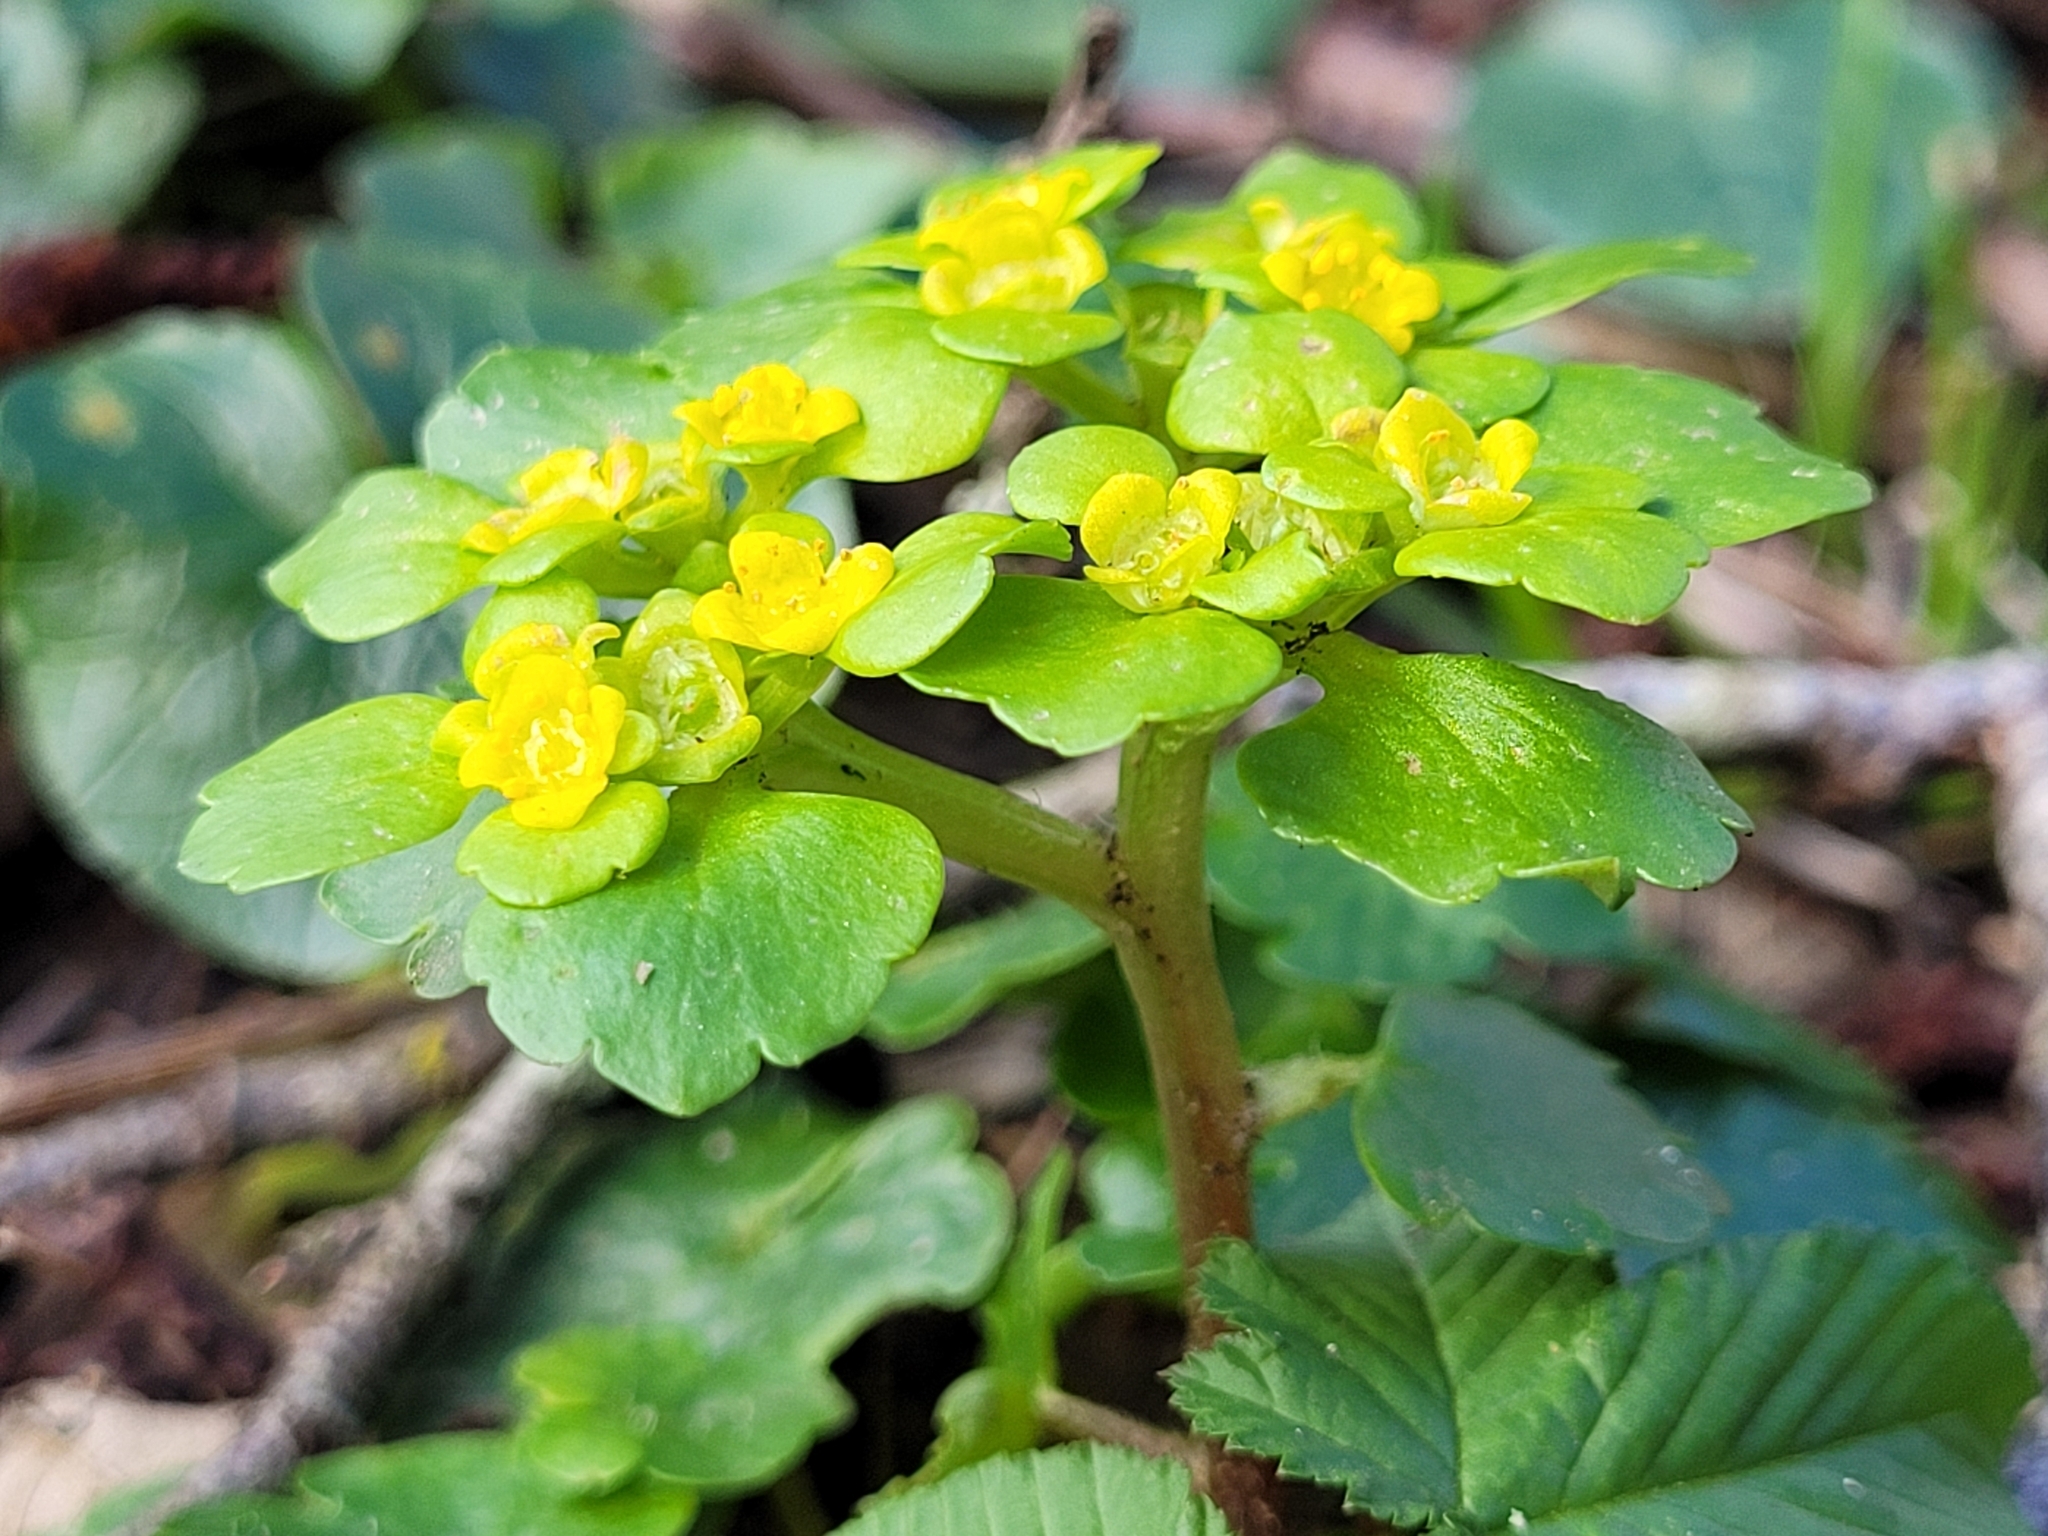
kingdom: Plantae
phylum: Tracheophyta
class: Magnoliopsida
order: Saxifragales
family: Saxifragaceae
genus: Chrysosplenium
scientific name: Chrysosplenium alternifolium
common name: Alternate-leaved golden-saxifrage
